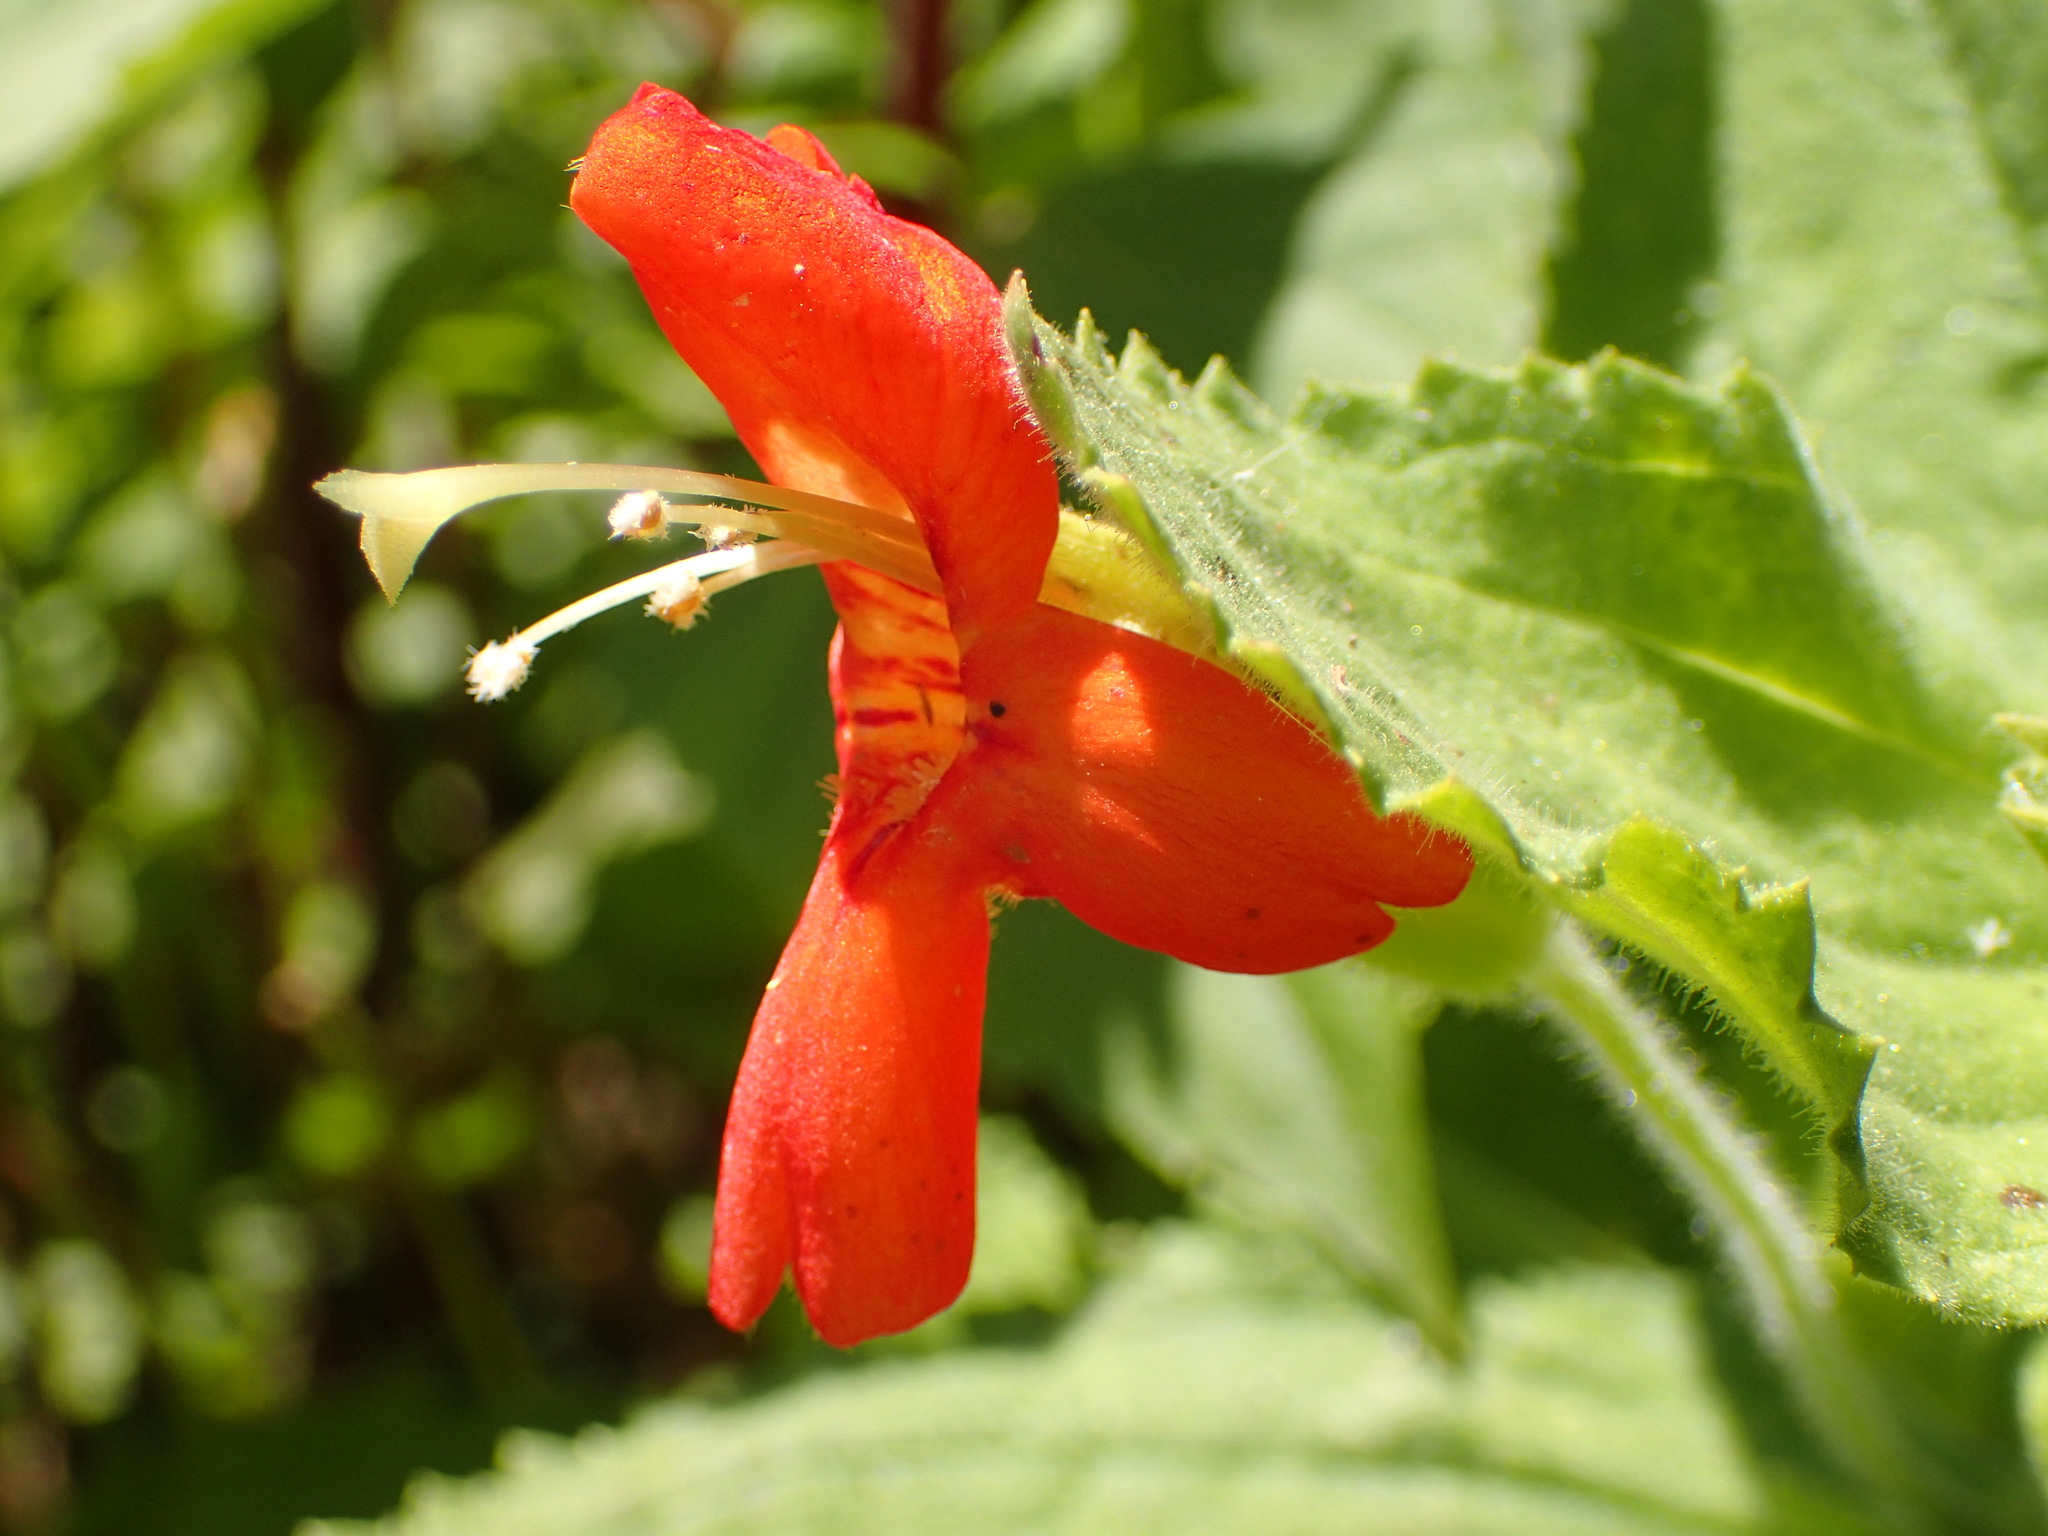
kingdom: Plantae
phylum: Tracheophyta
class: Magnoliopsida
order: Lamiales
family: Phrymaceae
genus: Erythranthe
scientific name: Erythranthe cardinalis
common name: Scarlet monkey-flower
